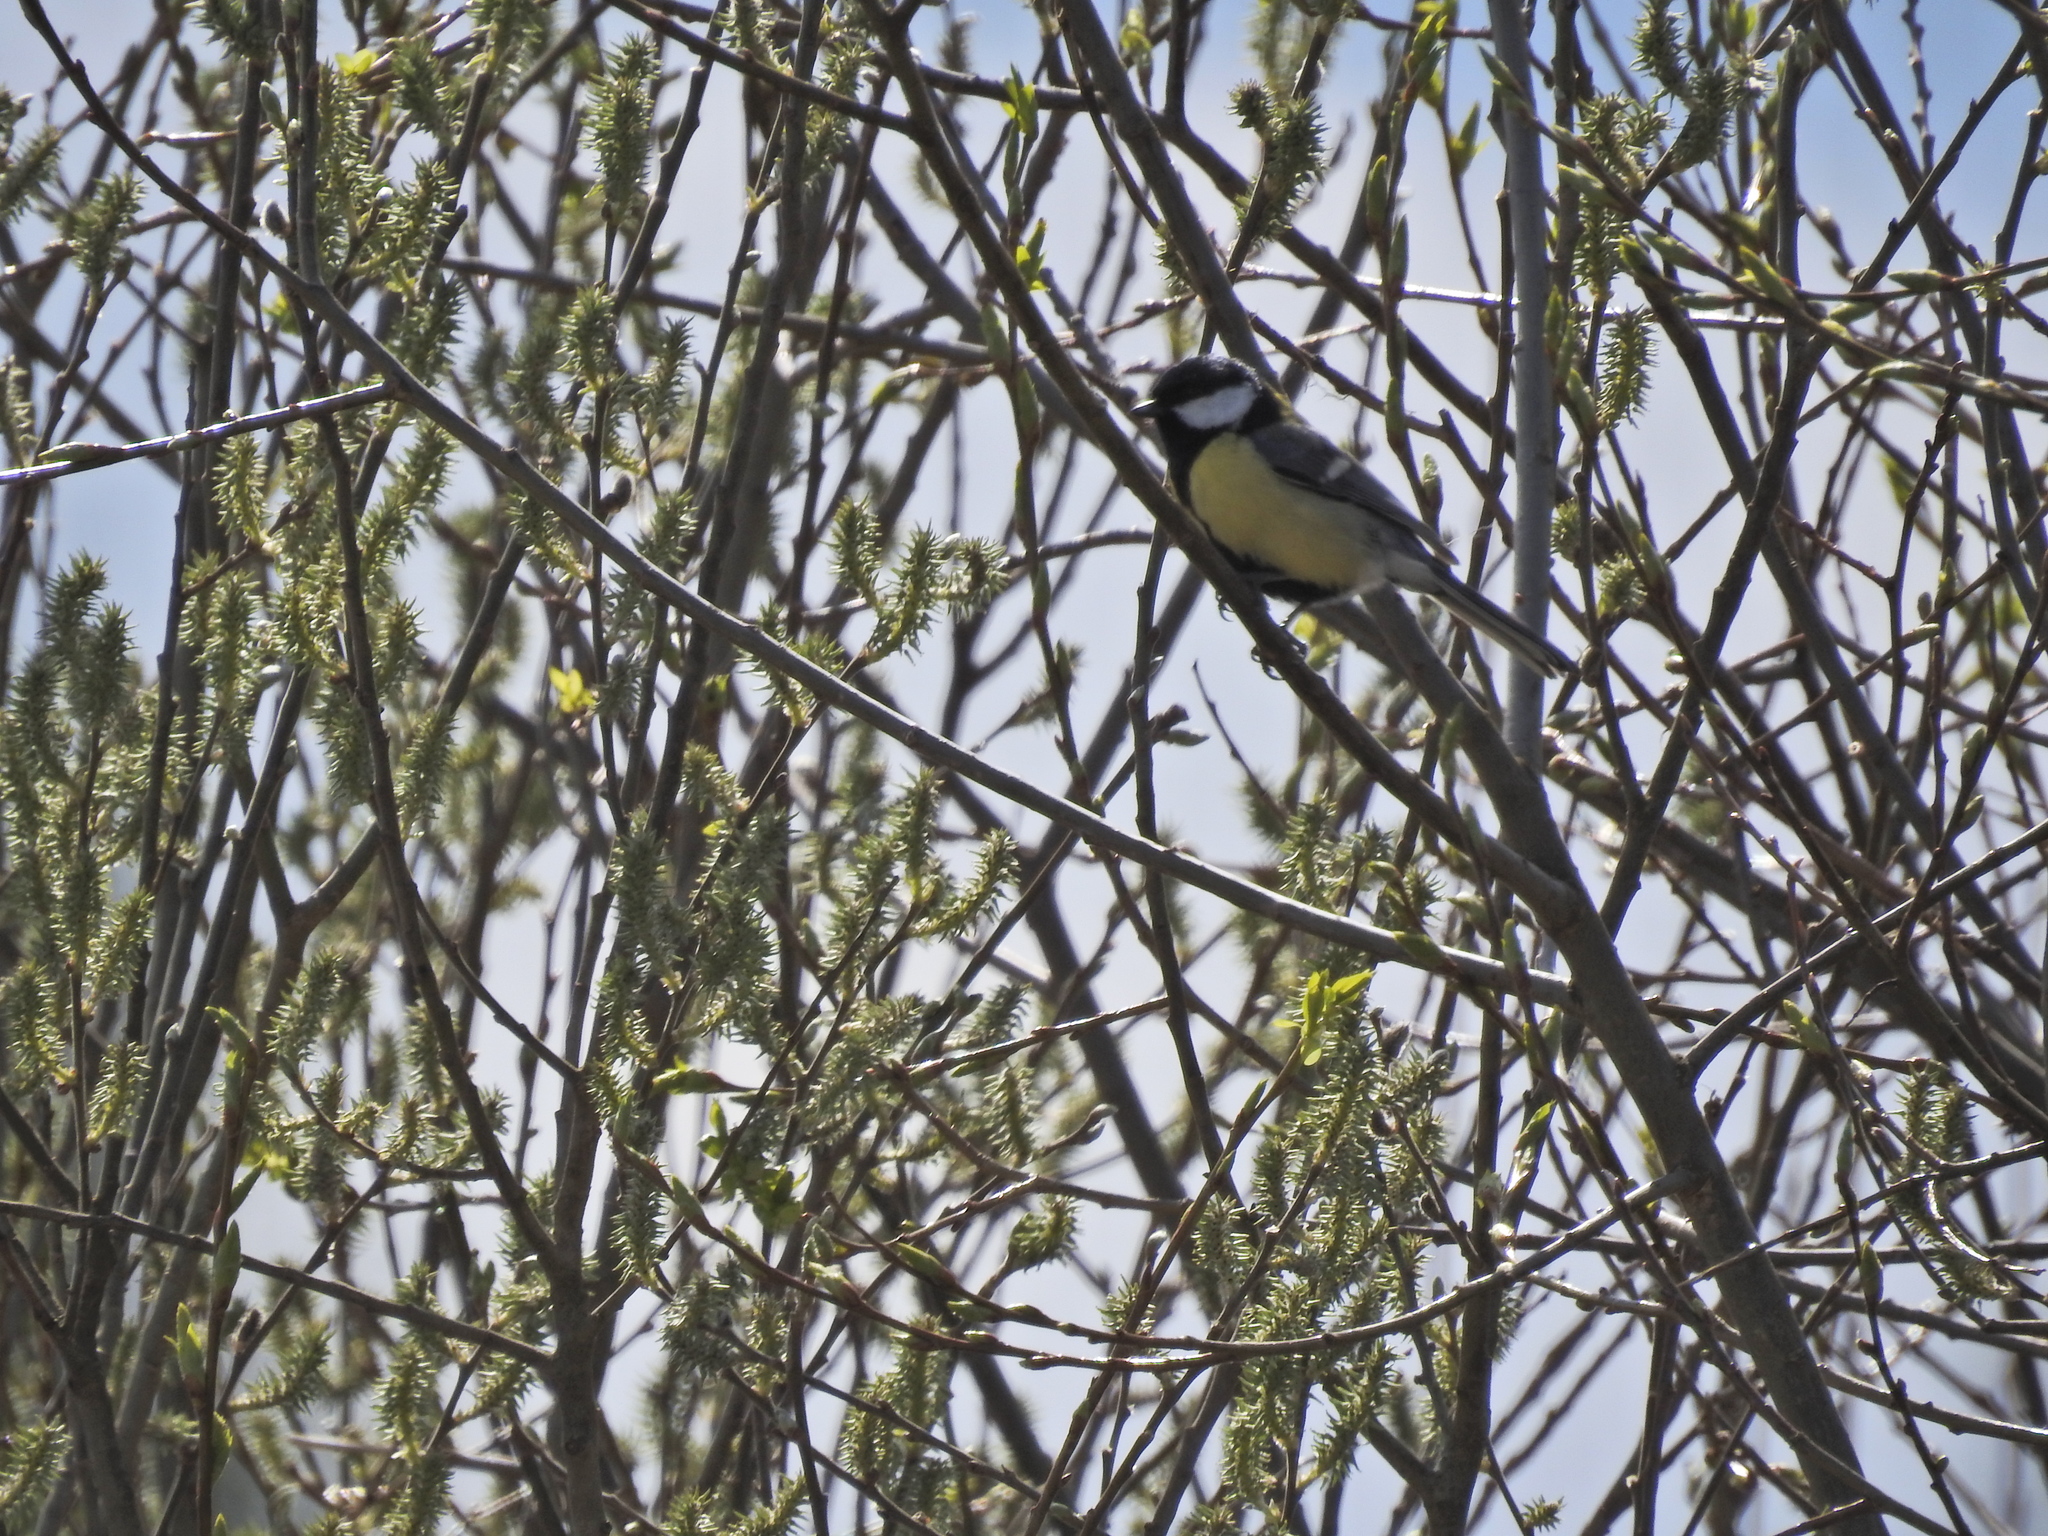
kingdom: Animalia
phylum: Chordata
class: Aves
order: Passeriformes
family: Paridae
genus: Parus
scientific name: Parus major
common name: Great tit
